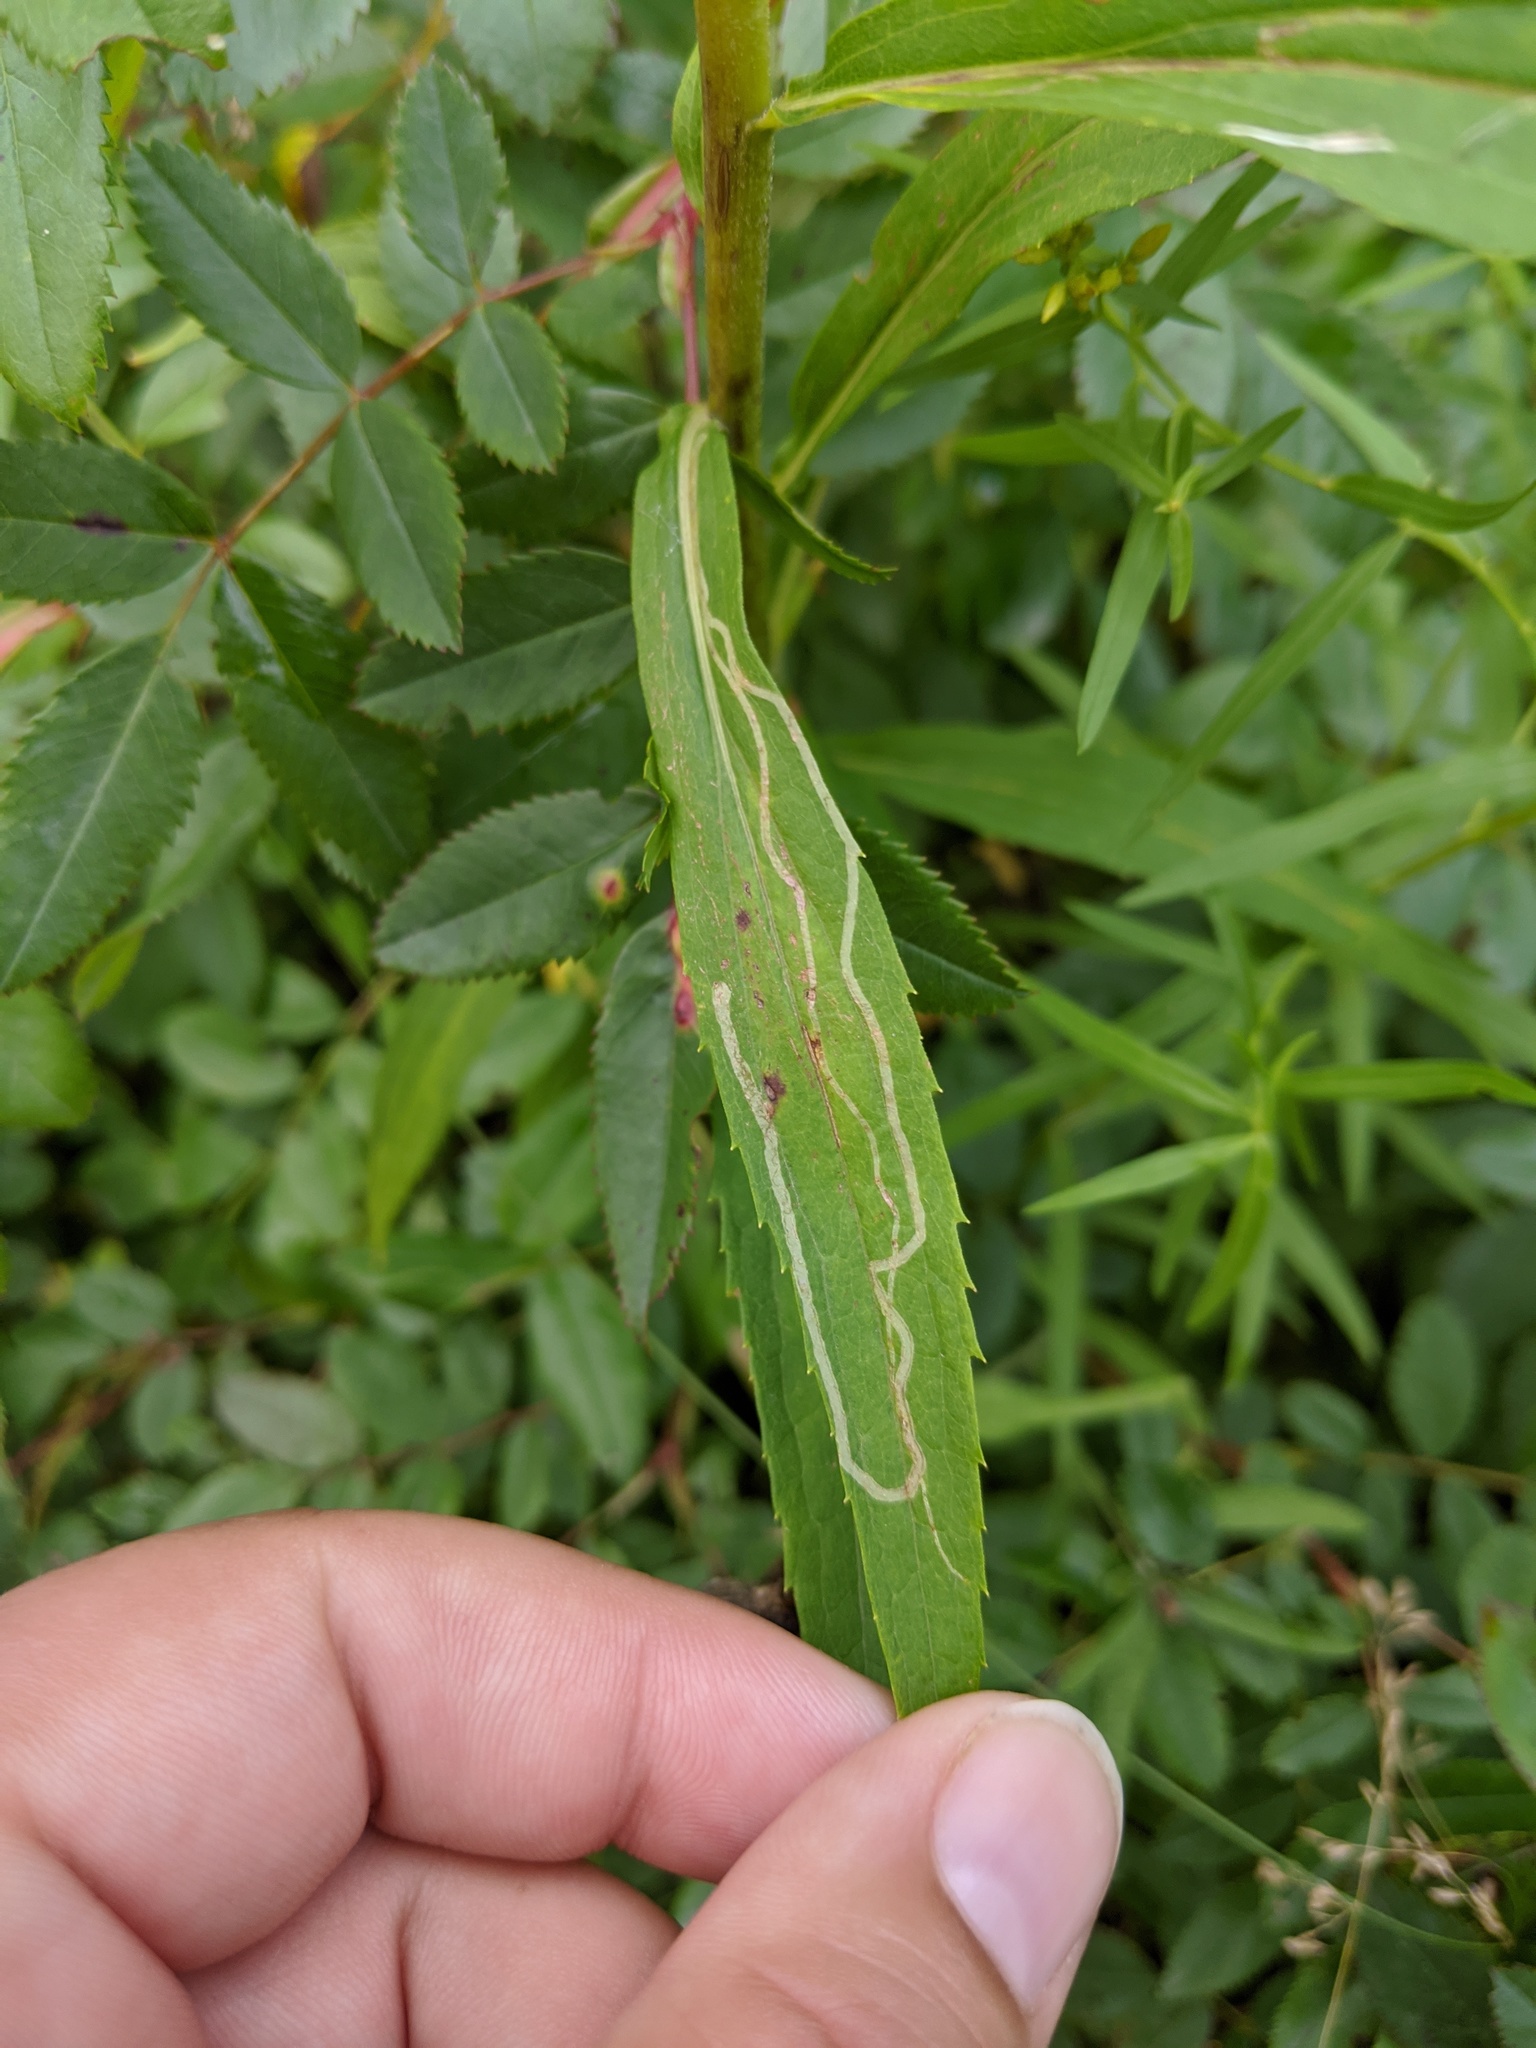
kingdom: Animalia
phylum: Arthropoda
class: Insecta
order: Diptera
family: Agromyzidae
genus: Ophiomyia
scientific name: Ophiomyia maura
